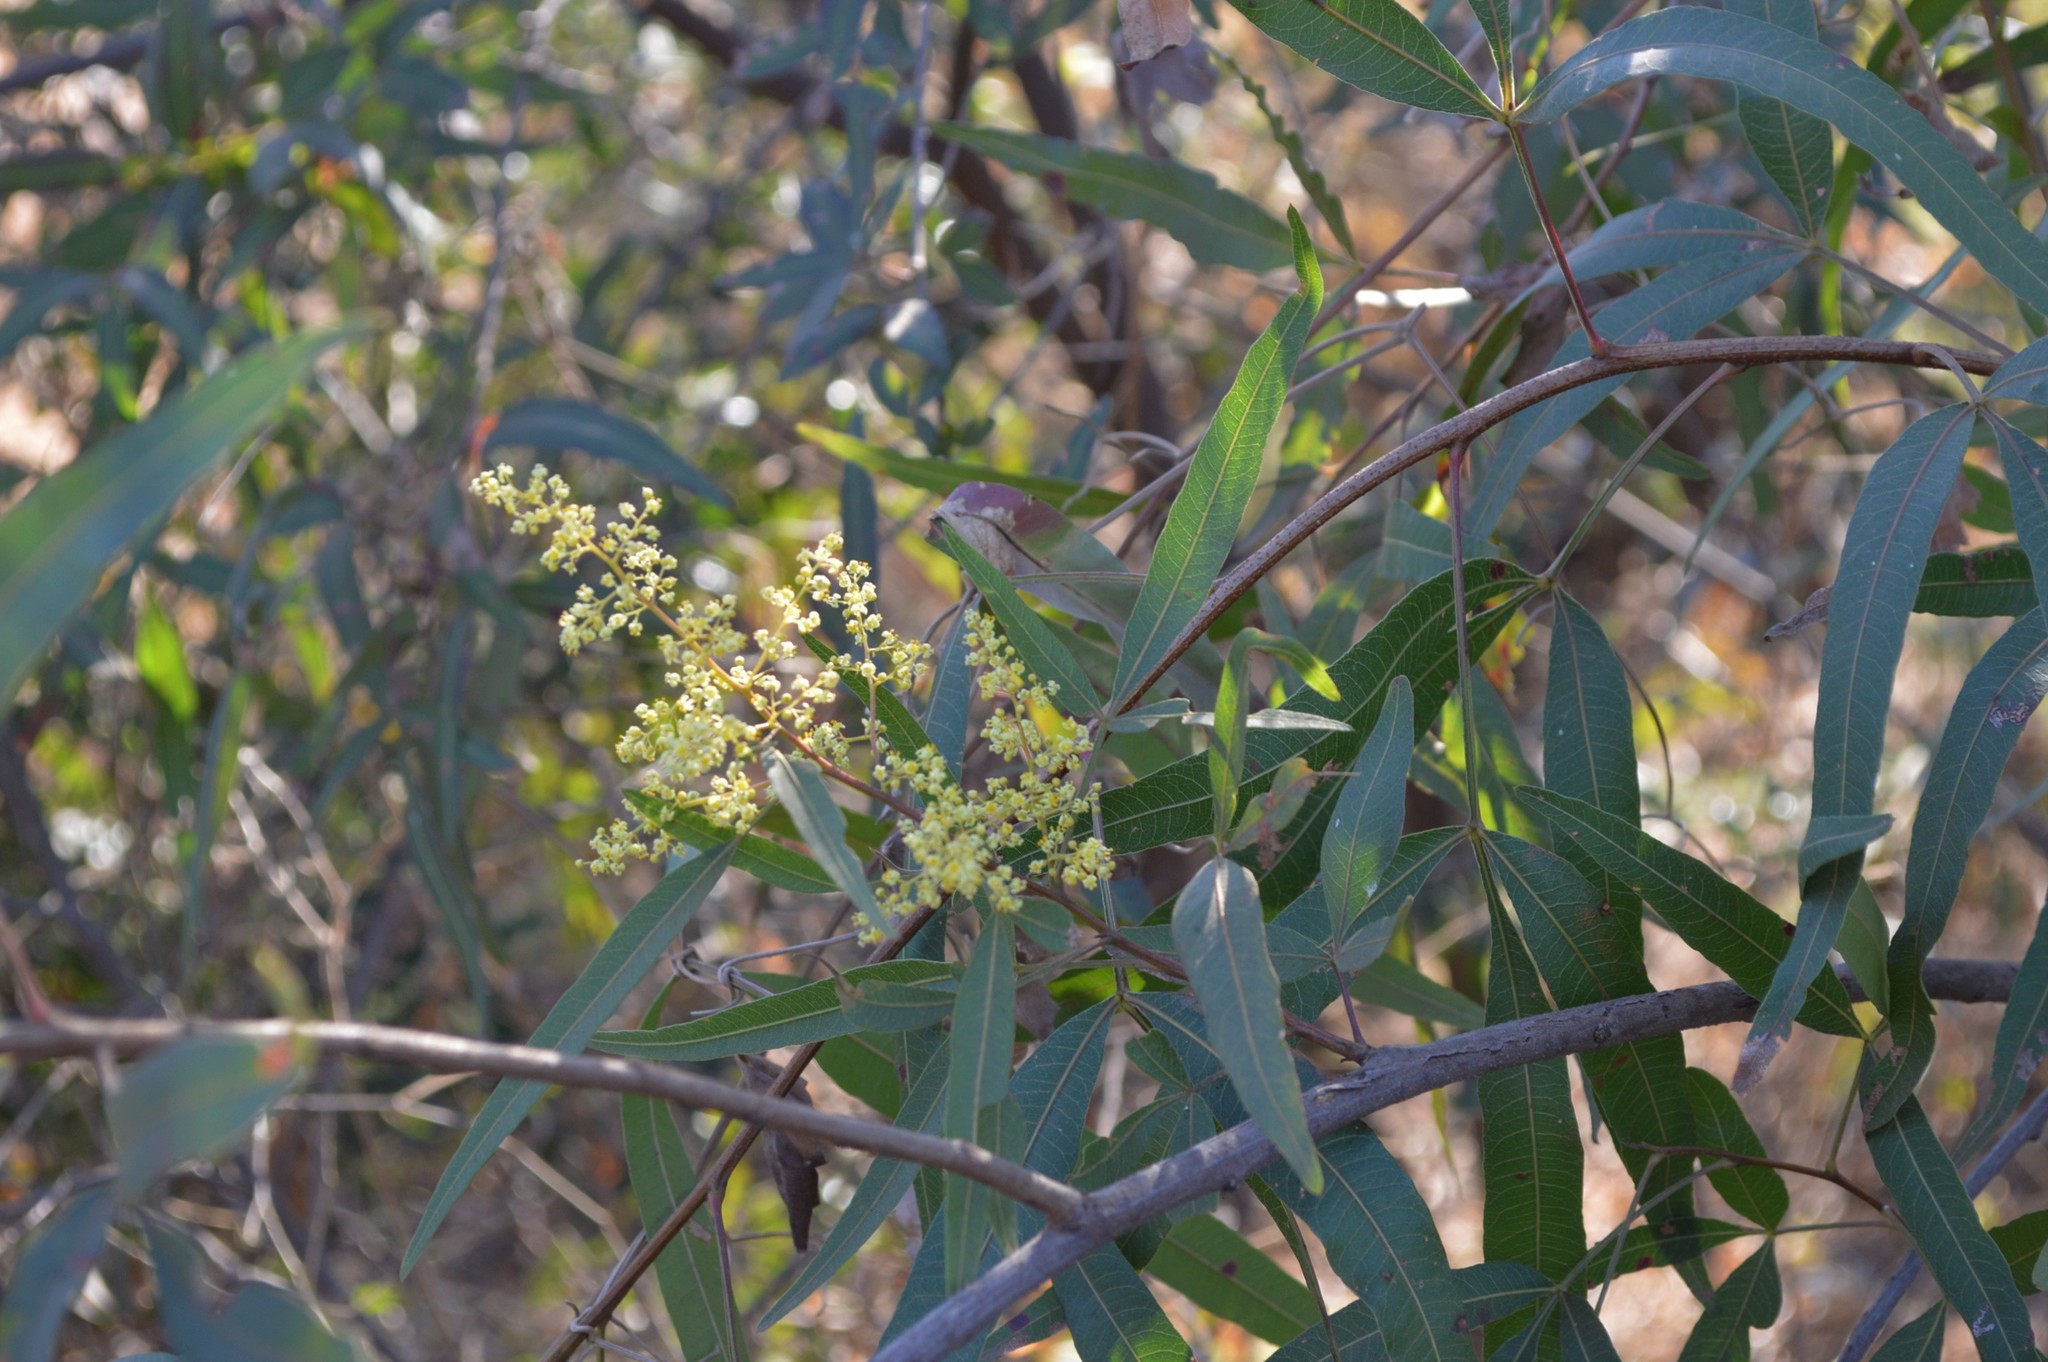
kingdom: Plantae
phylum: Tracheophyta
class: Magnoliopsida
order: Sapindales
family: Anacardiaceae
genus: Searsia
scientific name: Searsia lancea
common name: Cashew
